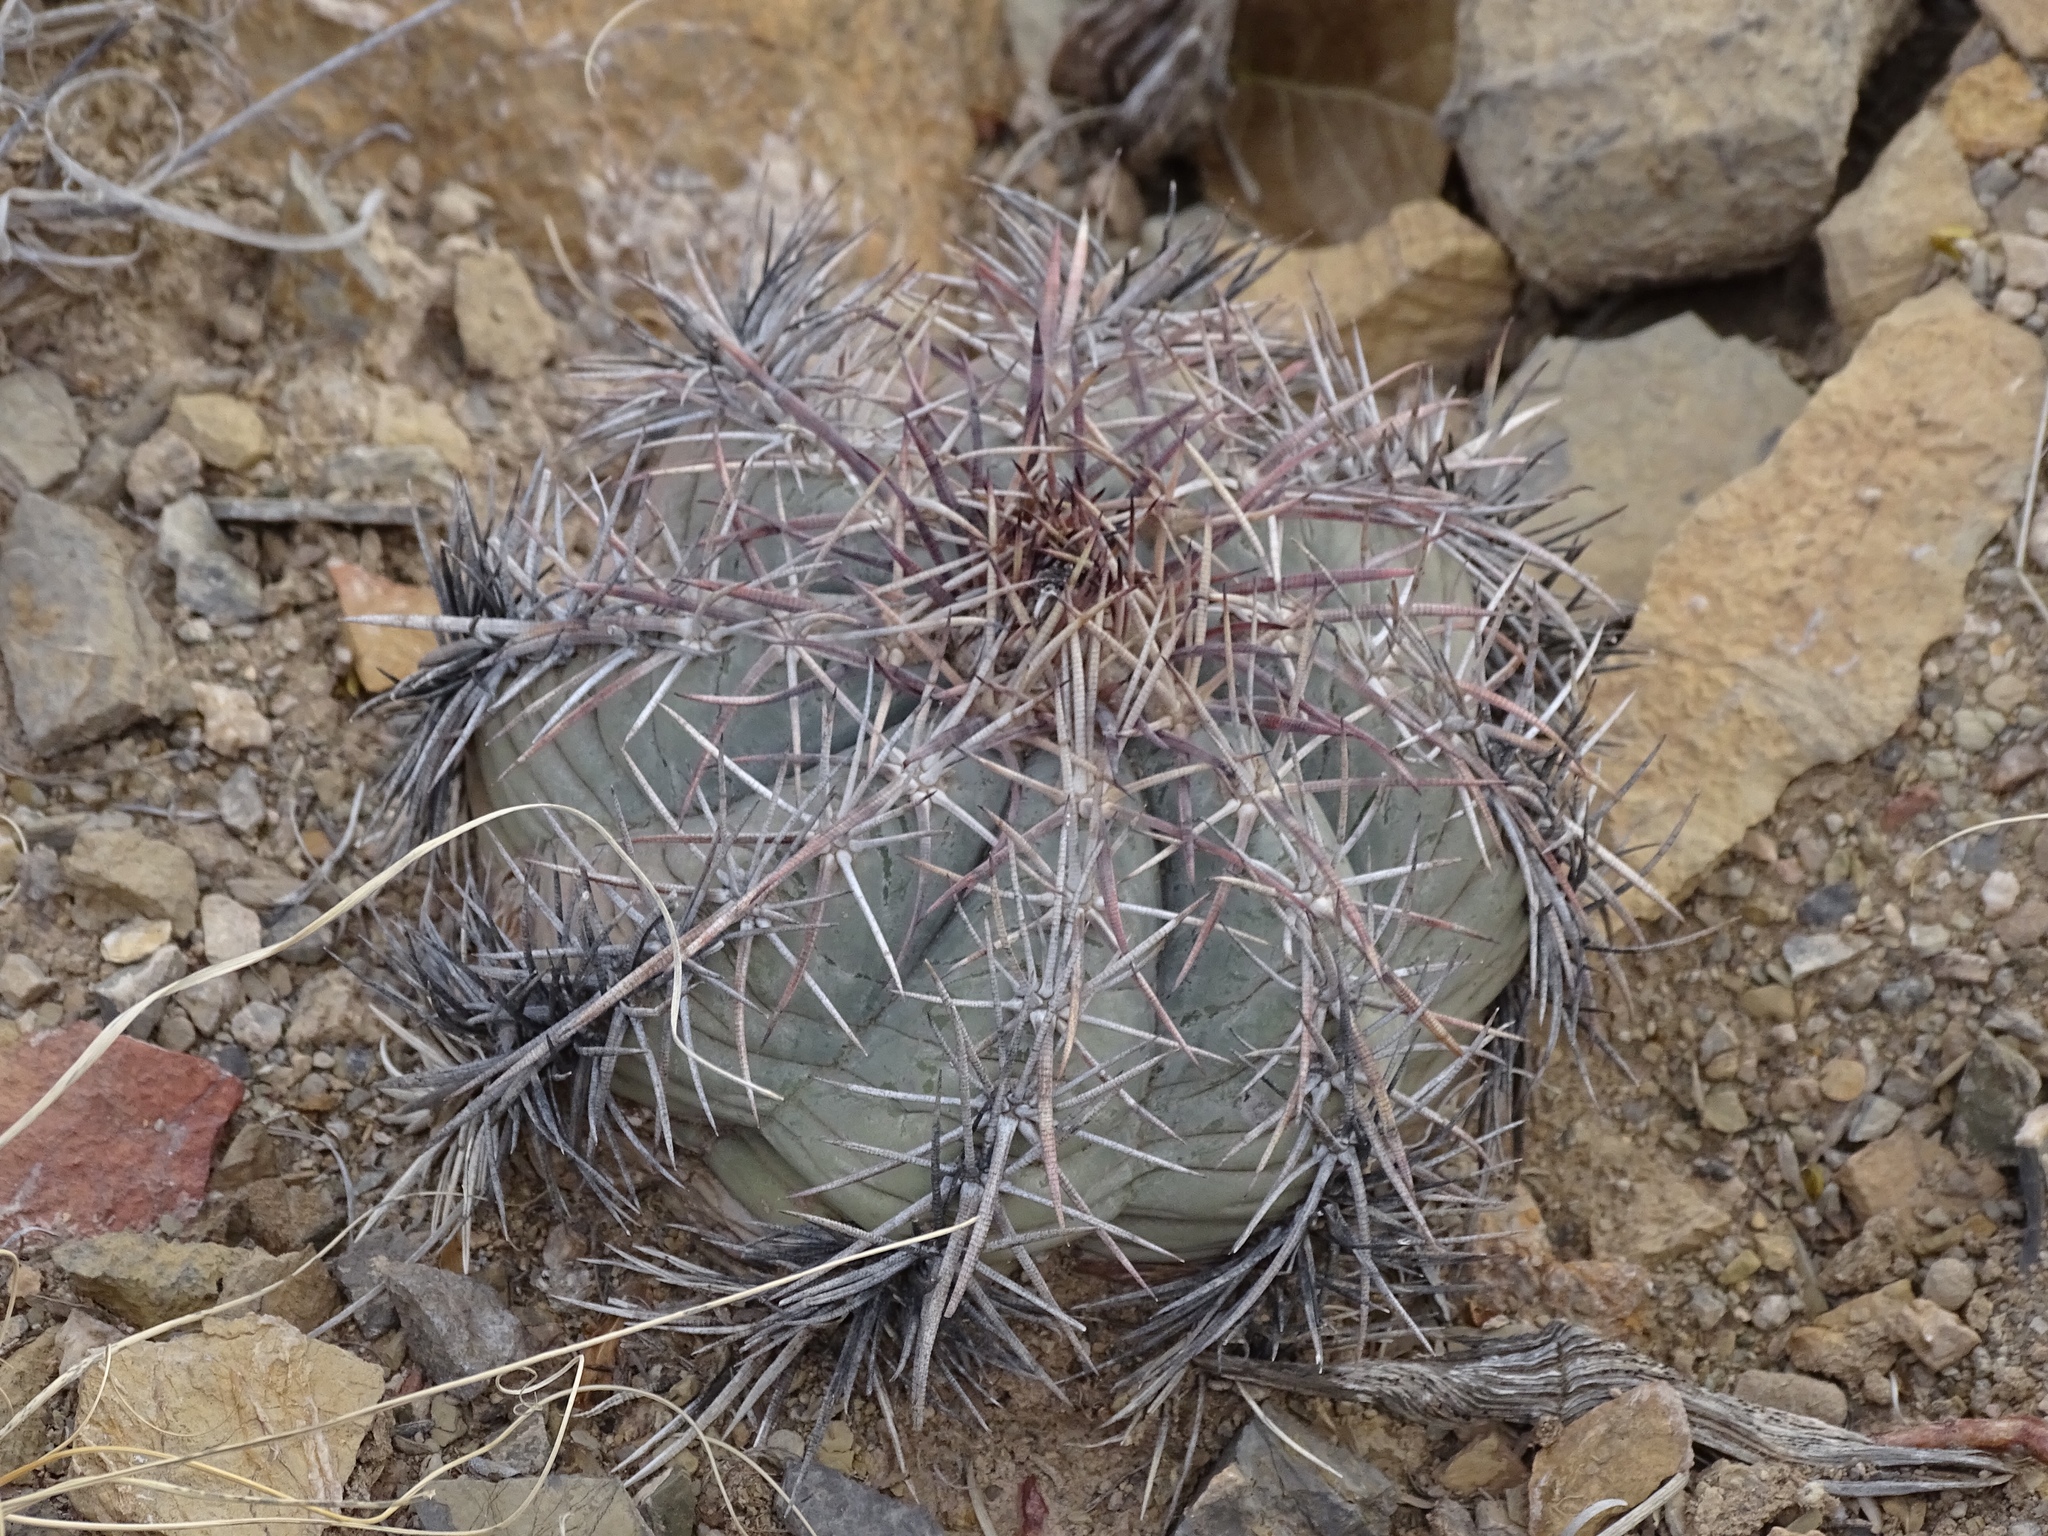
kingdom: Plantae
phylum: Tracheophyta
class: Magnoliopsida
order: Caryophyllales
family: Cactaceae
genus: Echinocactus
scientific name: Echinocactus horizonthalonius
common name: Devilshead
